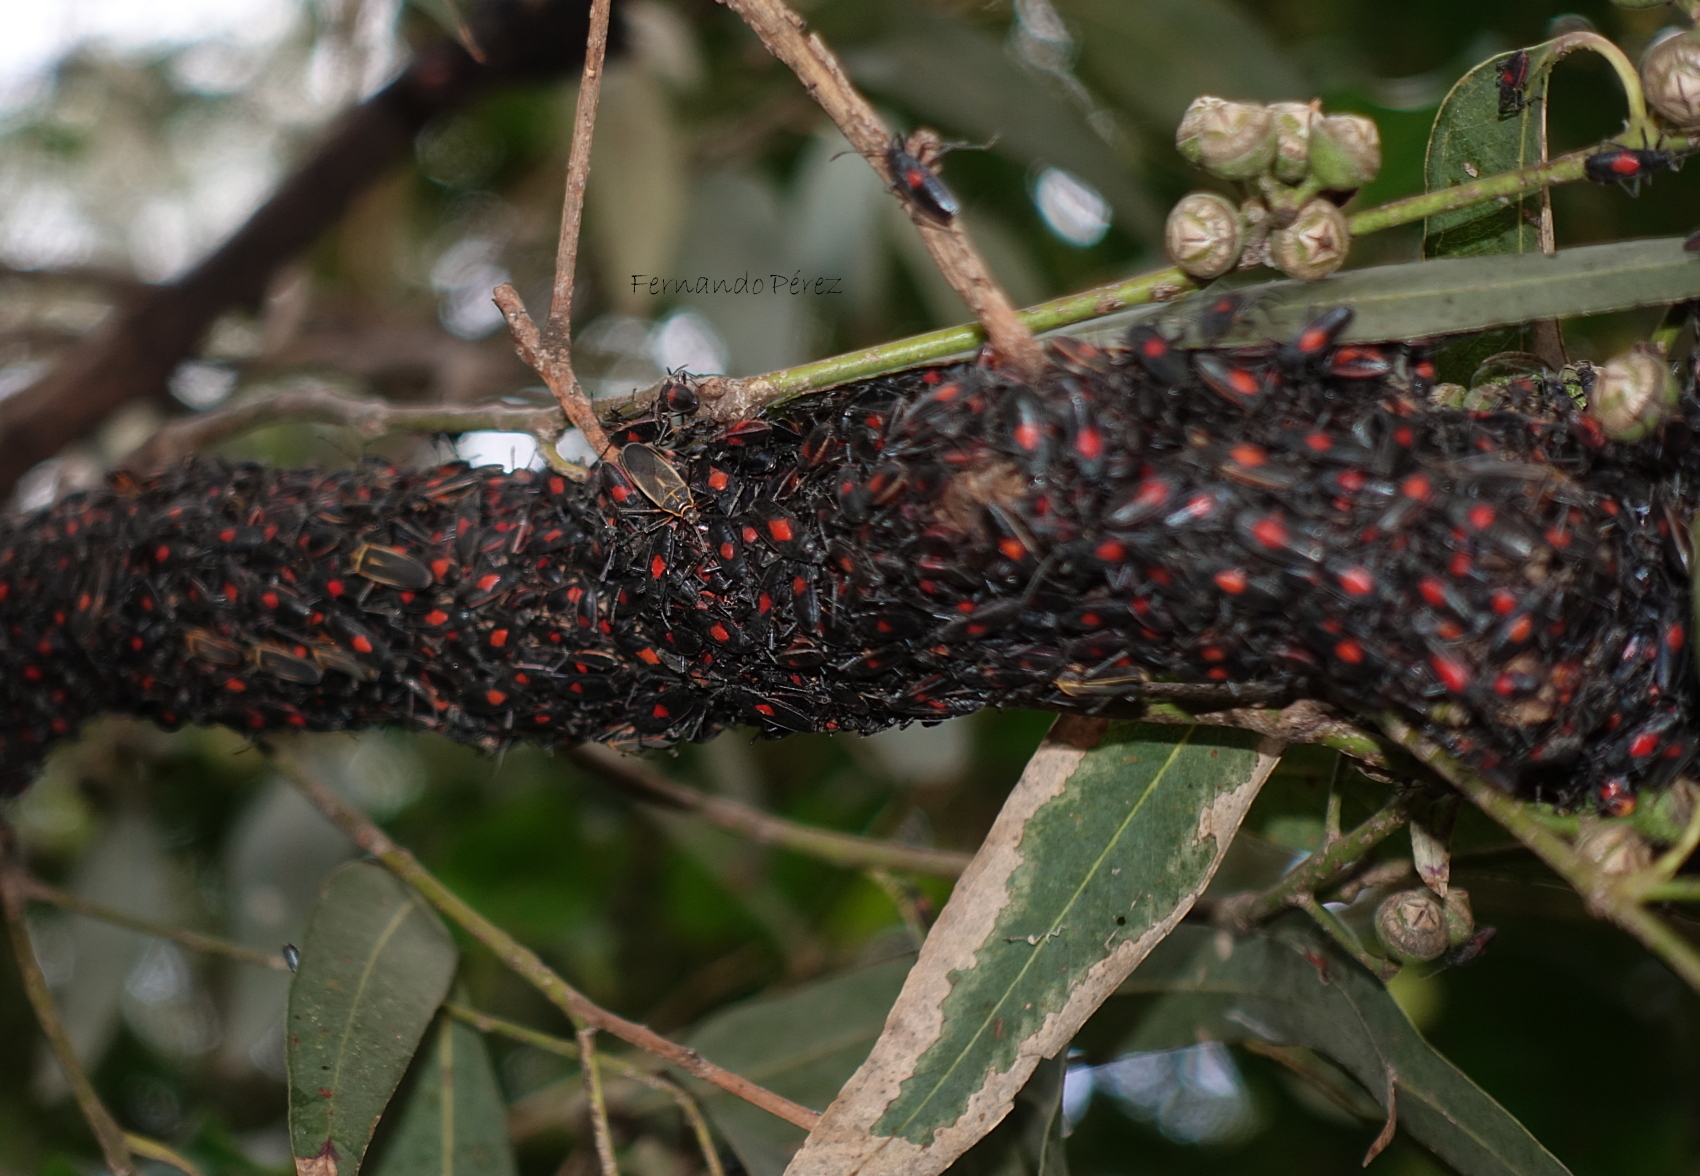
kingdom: Animalia
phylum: Arthropoda
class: Insecta
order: Hemiptera
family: Largidae
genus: Stenomacra
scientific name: Stenomacra marginella
